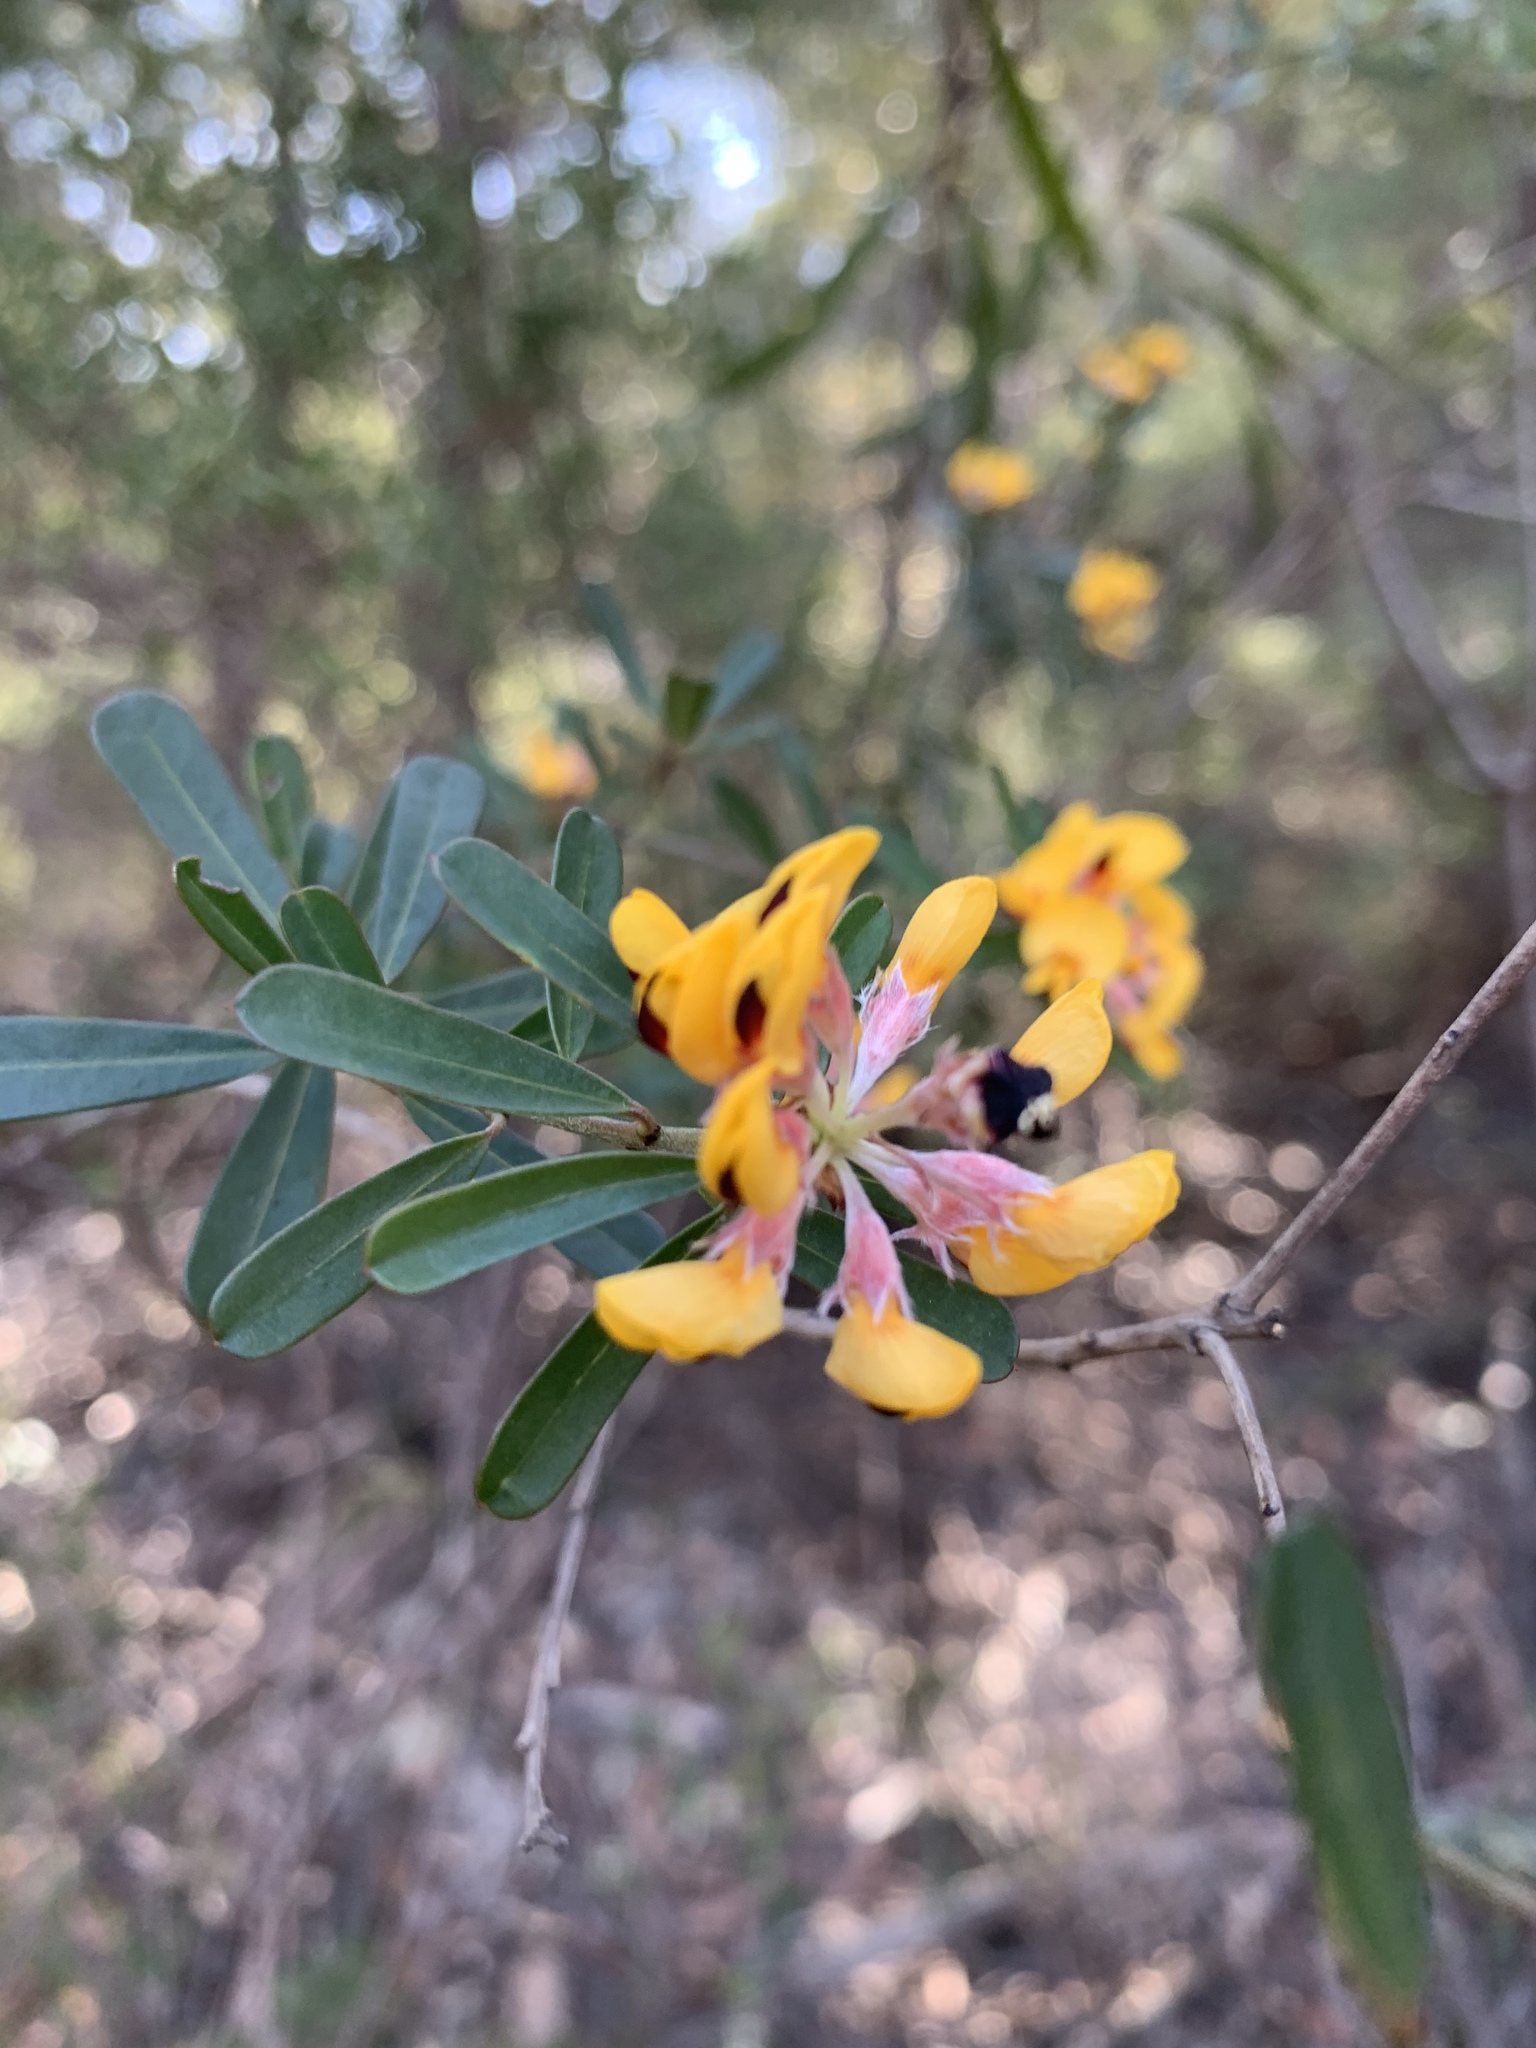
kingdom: Plantae
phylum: Tracheophyta
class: Magnoliopsida
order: Fabales
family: Fabaceae
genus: Pultenaea
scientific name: Pultenaea daphnoides
